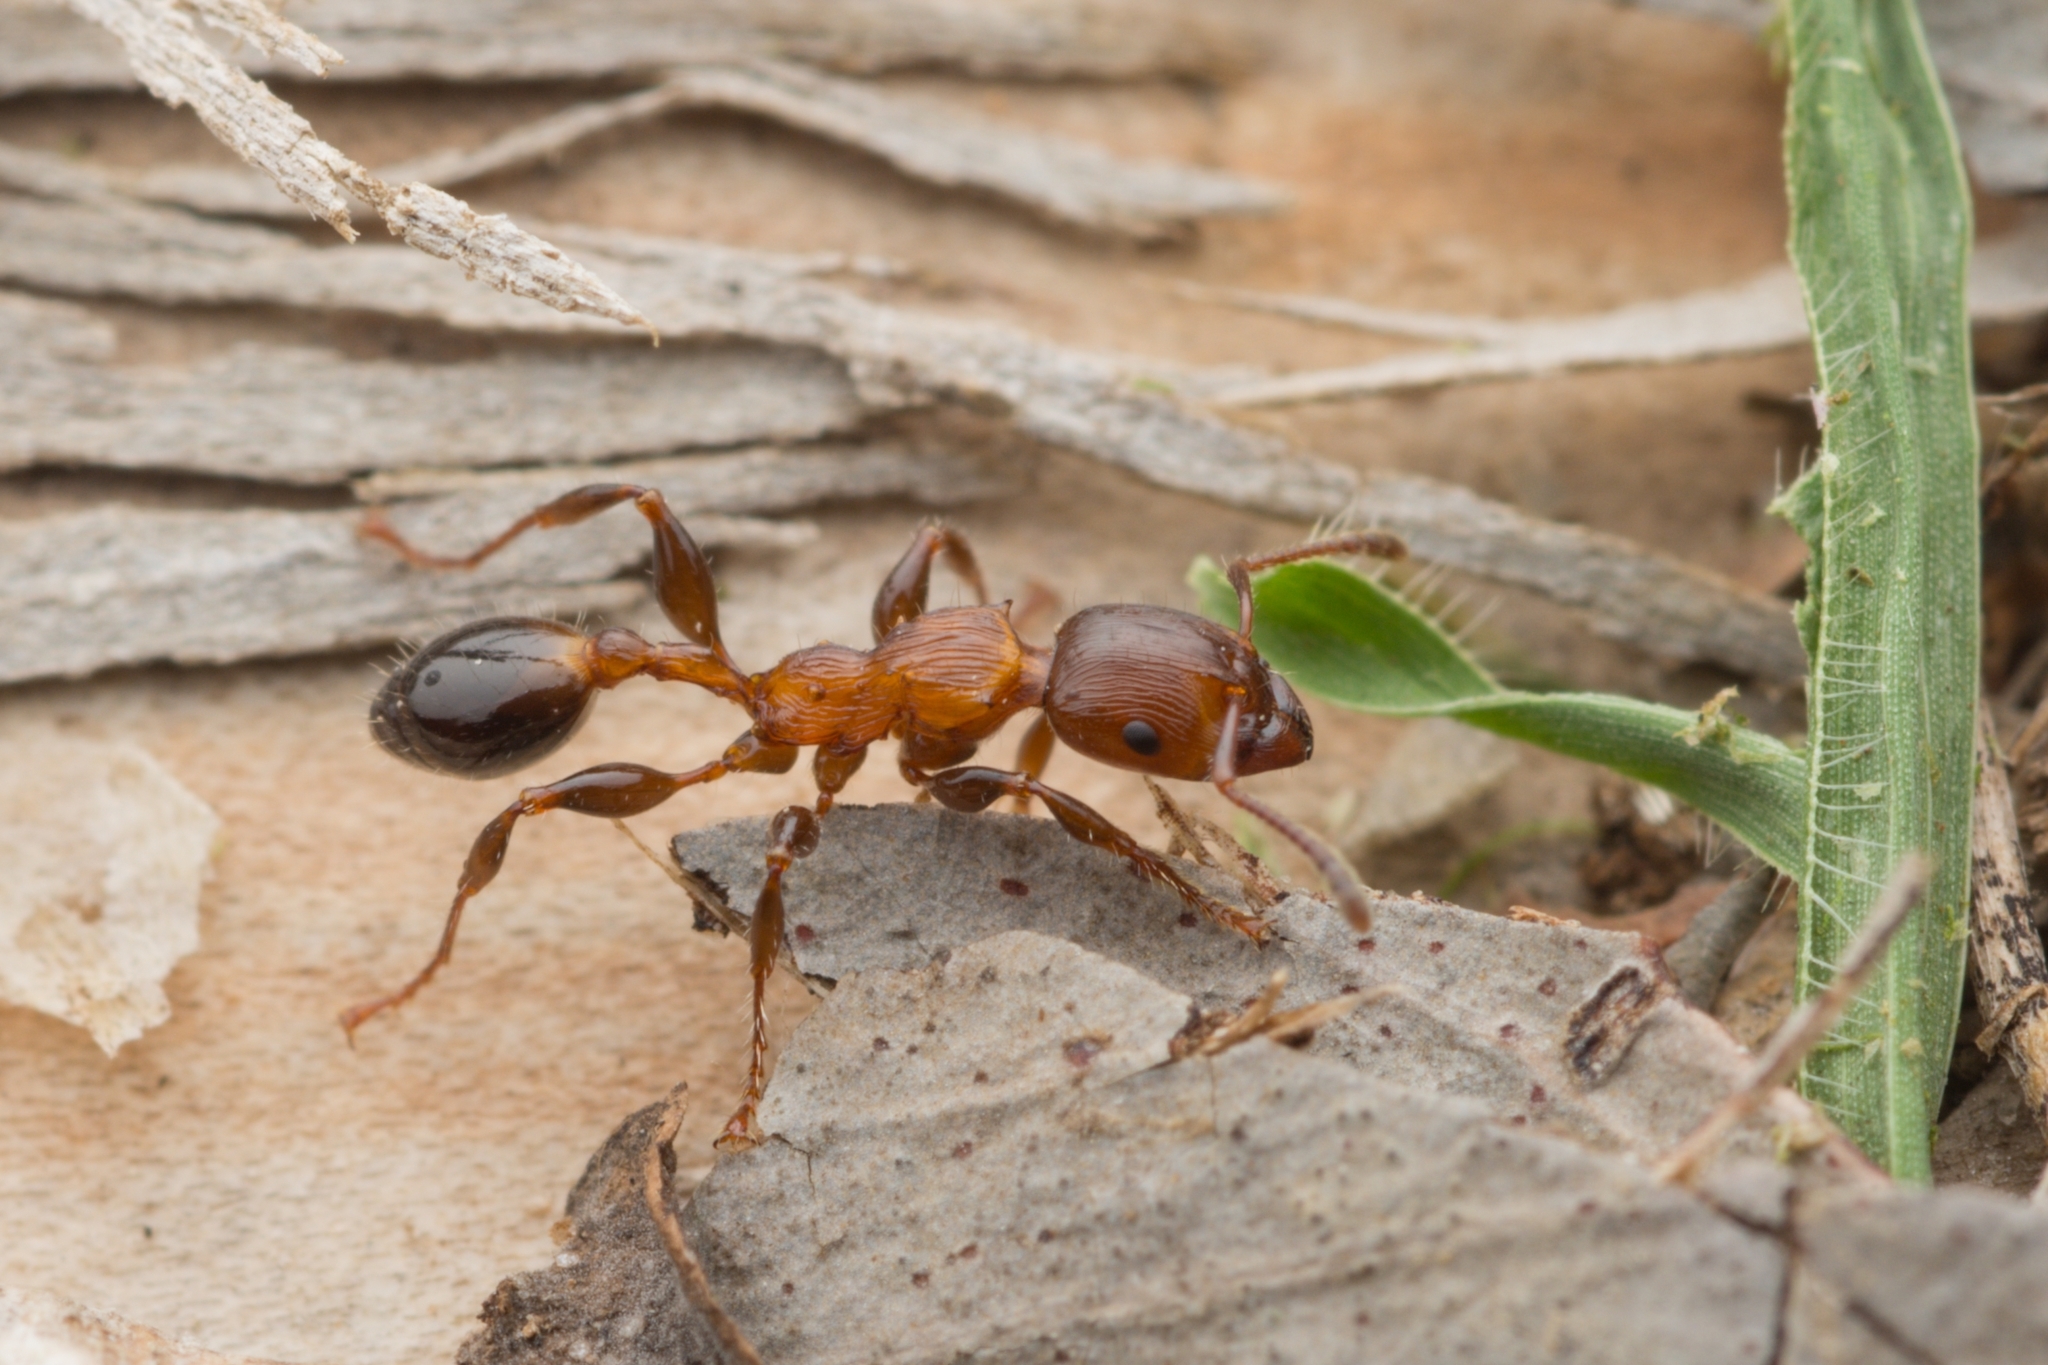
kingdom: Animalia
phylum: Arthropoda
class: Insecta
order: Hymenoptera
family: Formicidae
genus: Podomyrma
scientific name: Podomyrma laevifrons
